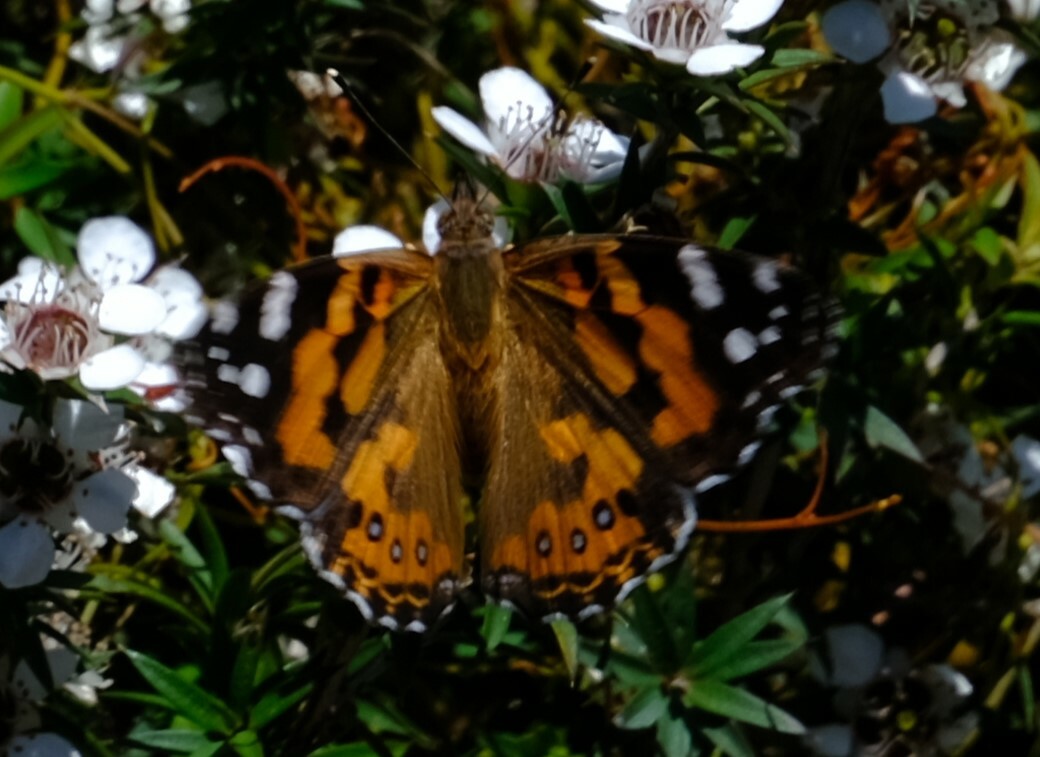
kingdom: Animalia
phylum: Arthropoda
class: Insecta
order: Lepidoptera
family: Nymphalidae
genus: Vanessa
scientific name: Vanessa kershawi
